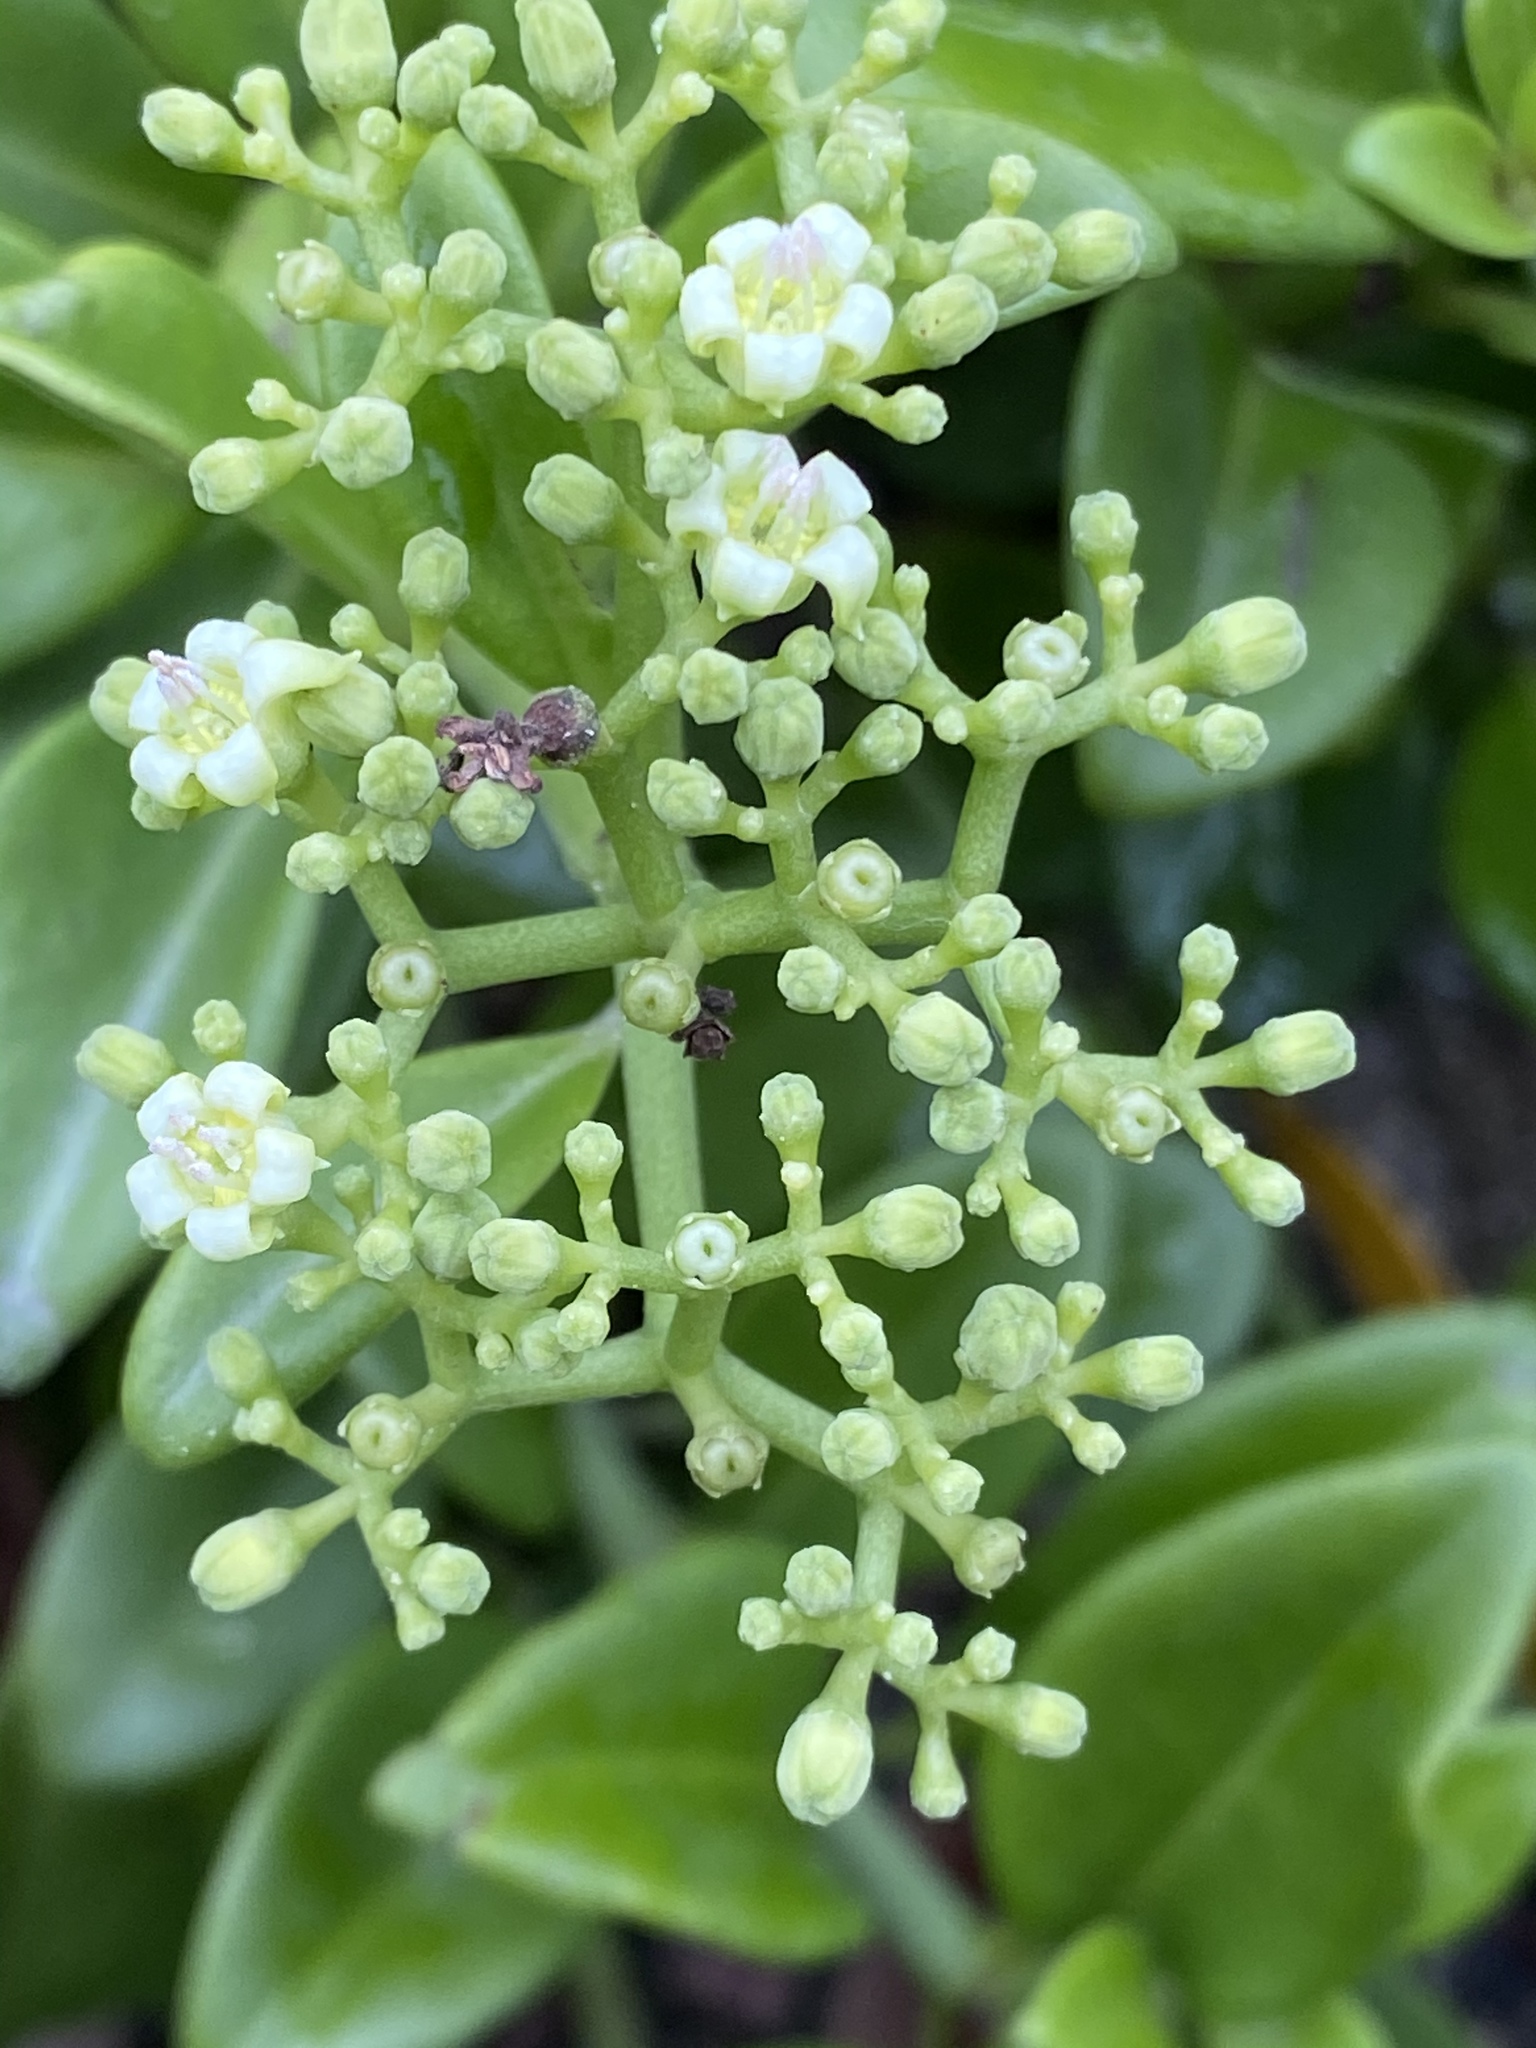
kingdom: Plantae
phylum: Tracheophyta
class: Magnoliopsida
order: Gentianales
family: Rubiaceae
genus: Psychotria
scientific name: Psychotria serpens
